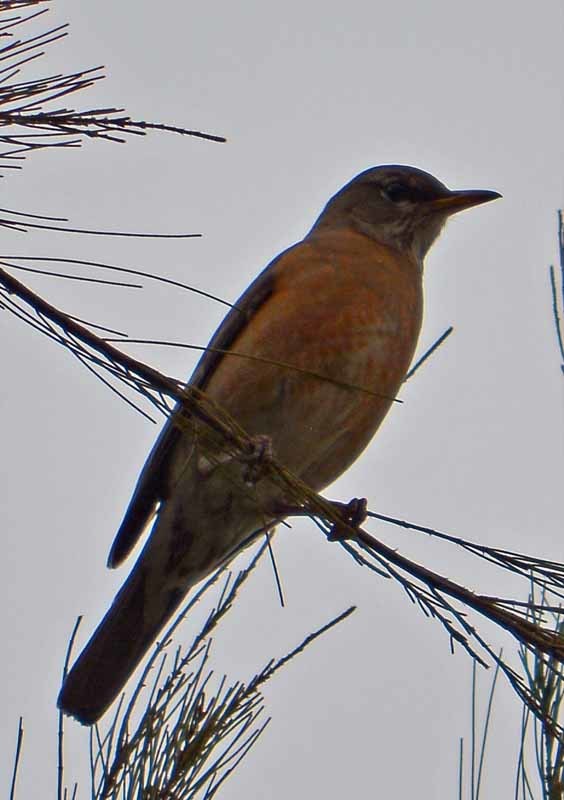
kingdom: Animalia
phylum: Chordata
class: Aves
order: Passeriformes
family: Turdidae
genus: Turdus
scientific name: Turdus migratorius
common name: American robin
